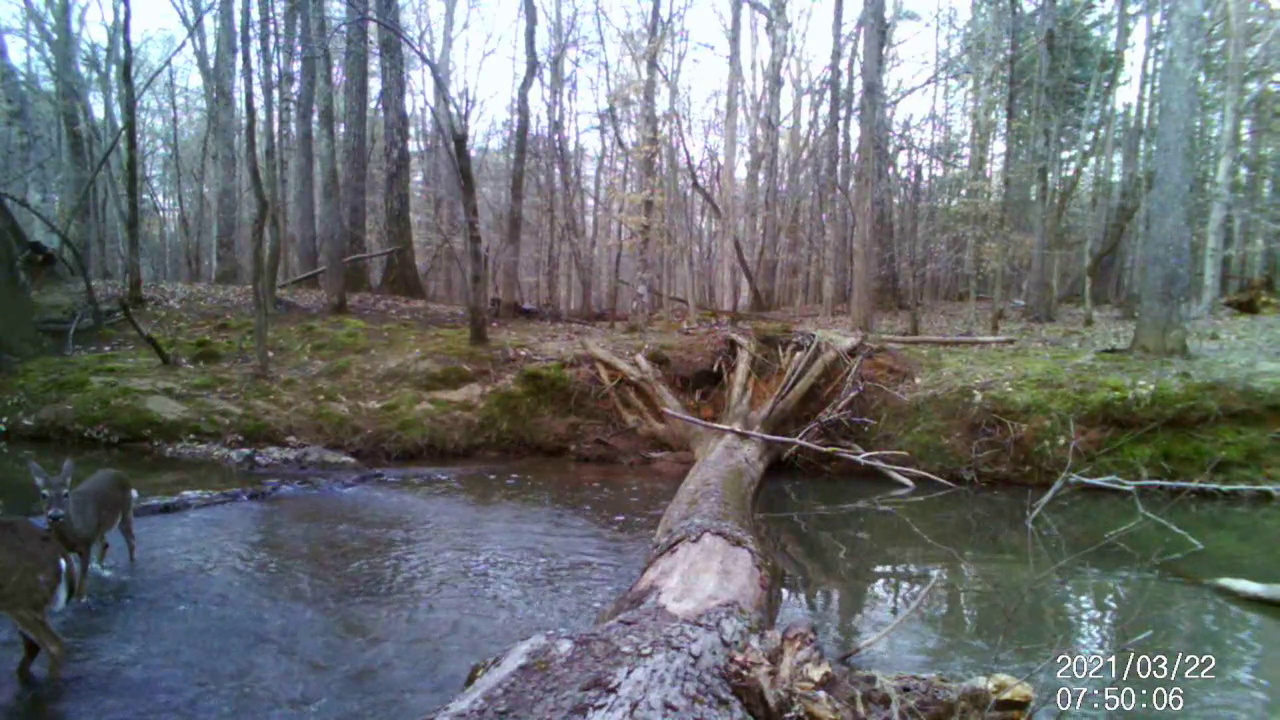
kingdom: Animalia
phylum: Chordata
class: Mammalia
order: Artiodactyla
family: Cervidae
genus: Odocoileus
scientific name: Odocoileus virginianus
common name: White-tailed deer
